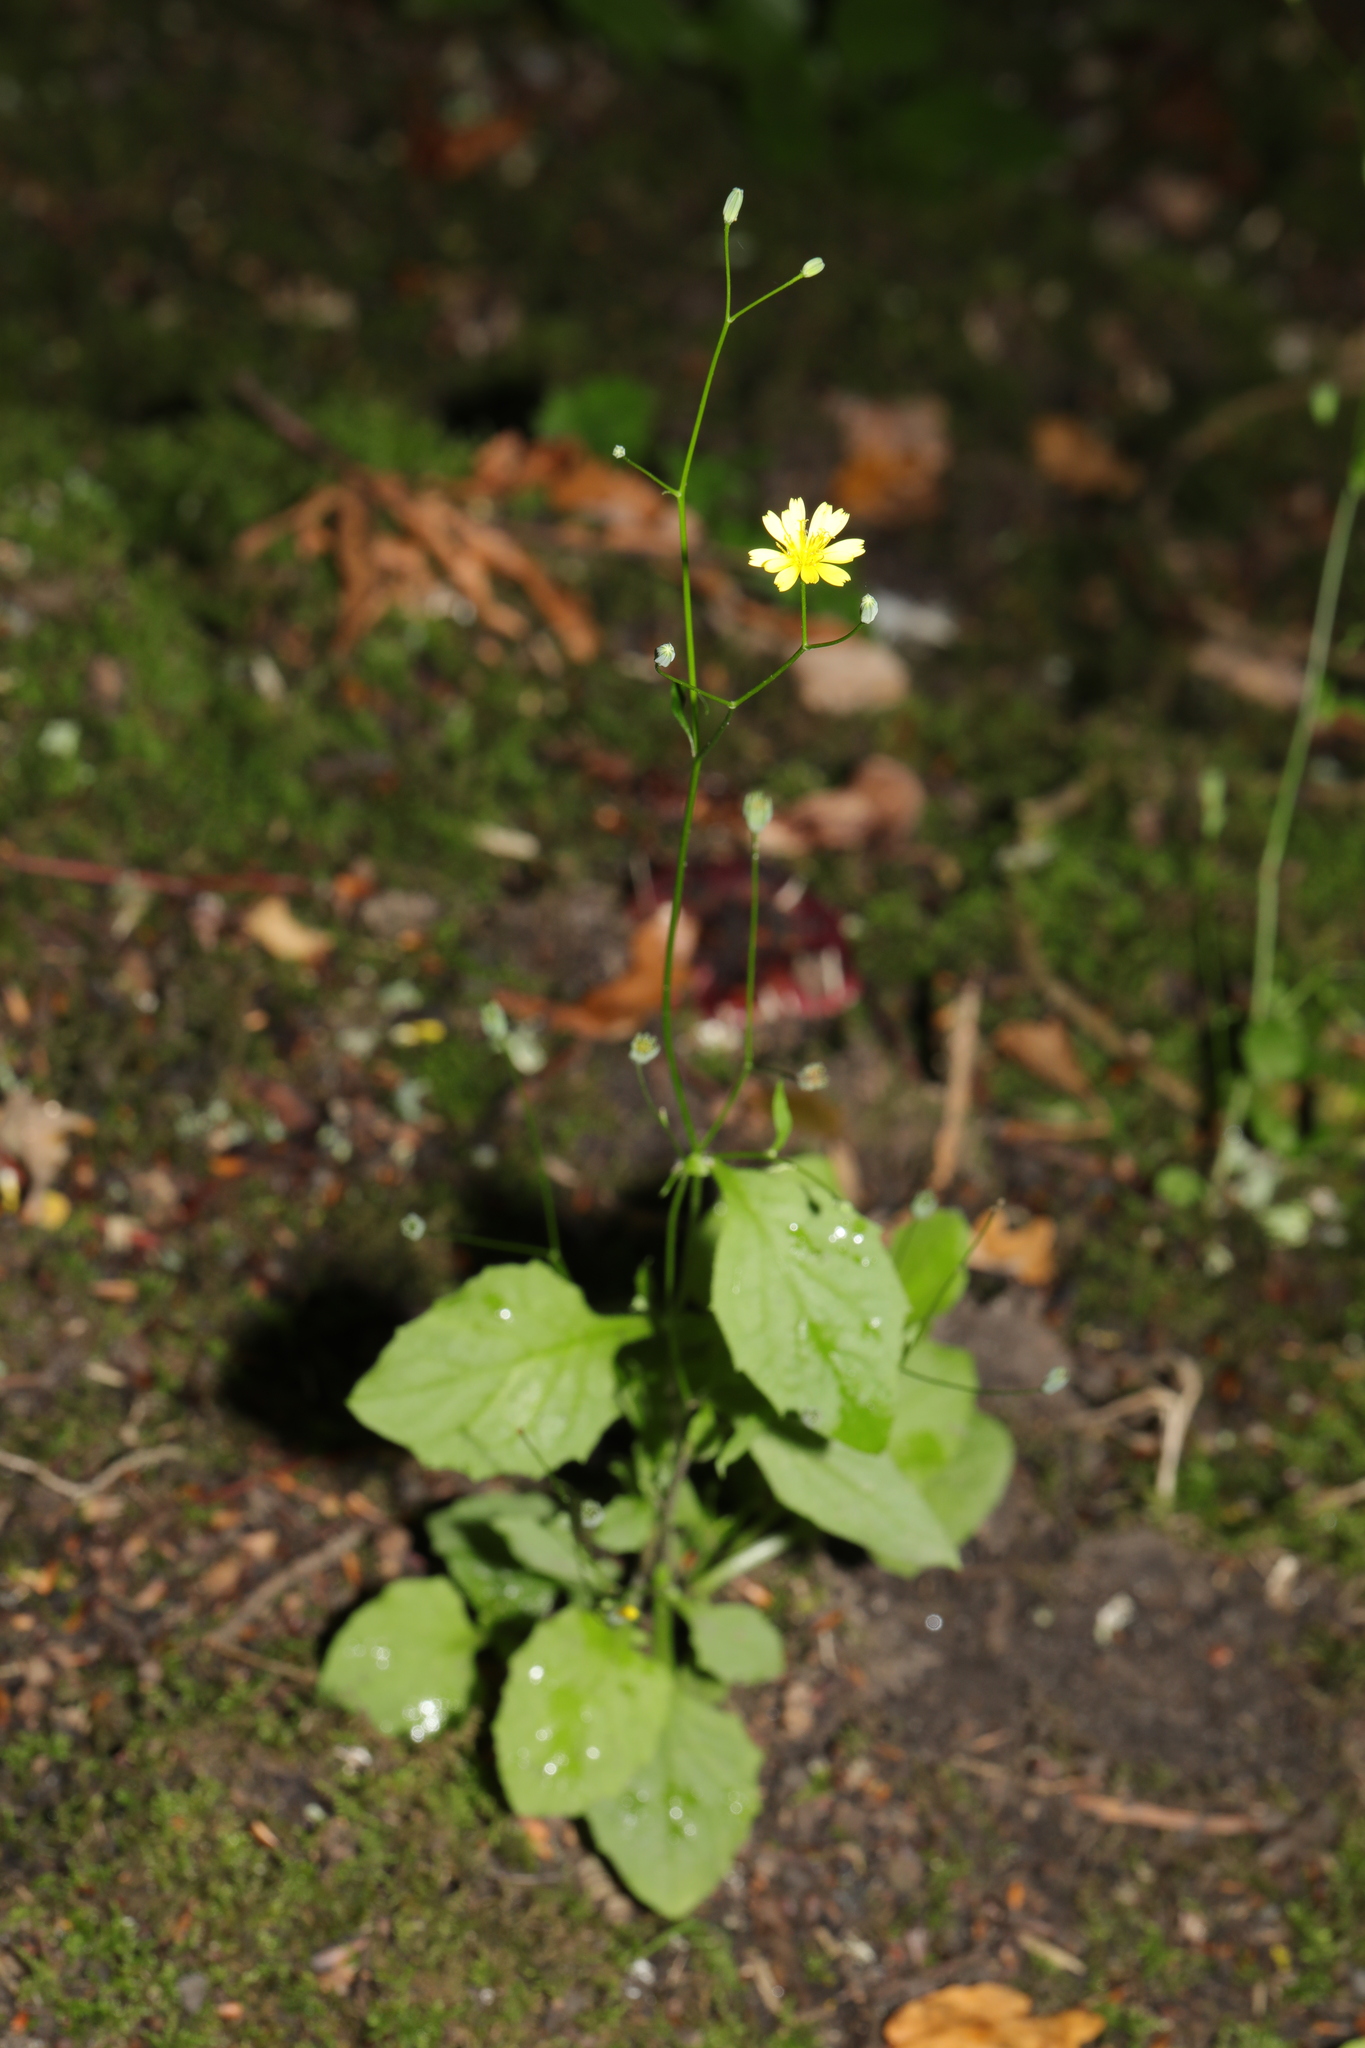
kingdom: Plantae
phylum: Tracheophyta
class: Magnoliopsida
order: Asterales
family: Asteraceae
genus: Lapsana
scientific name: Lapsana communis
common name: Nipplewort
